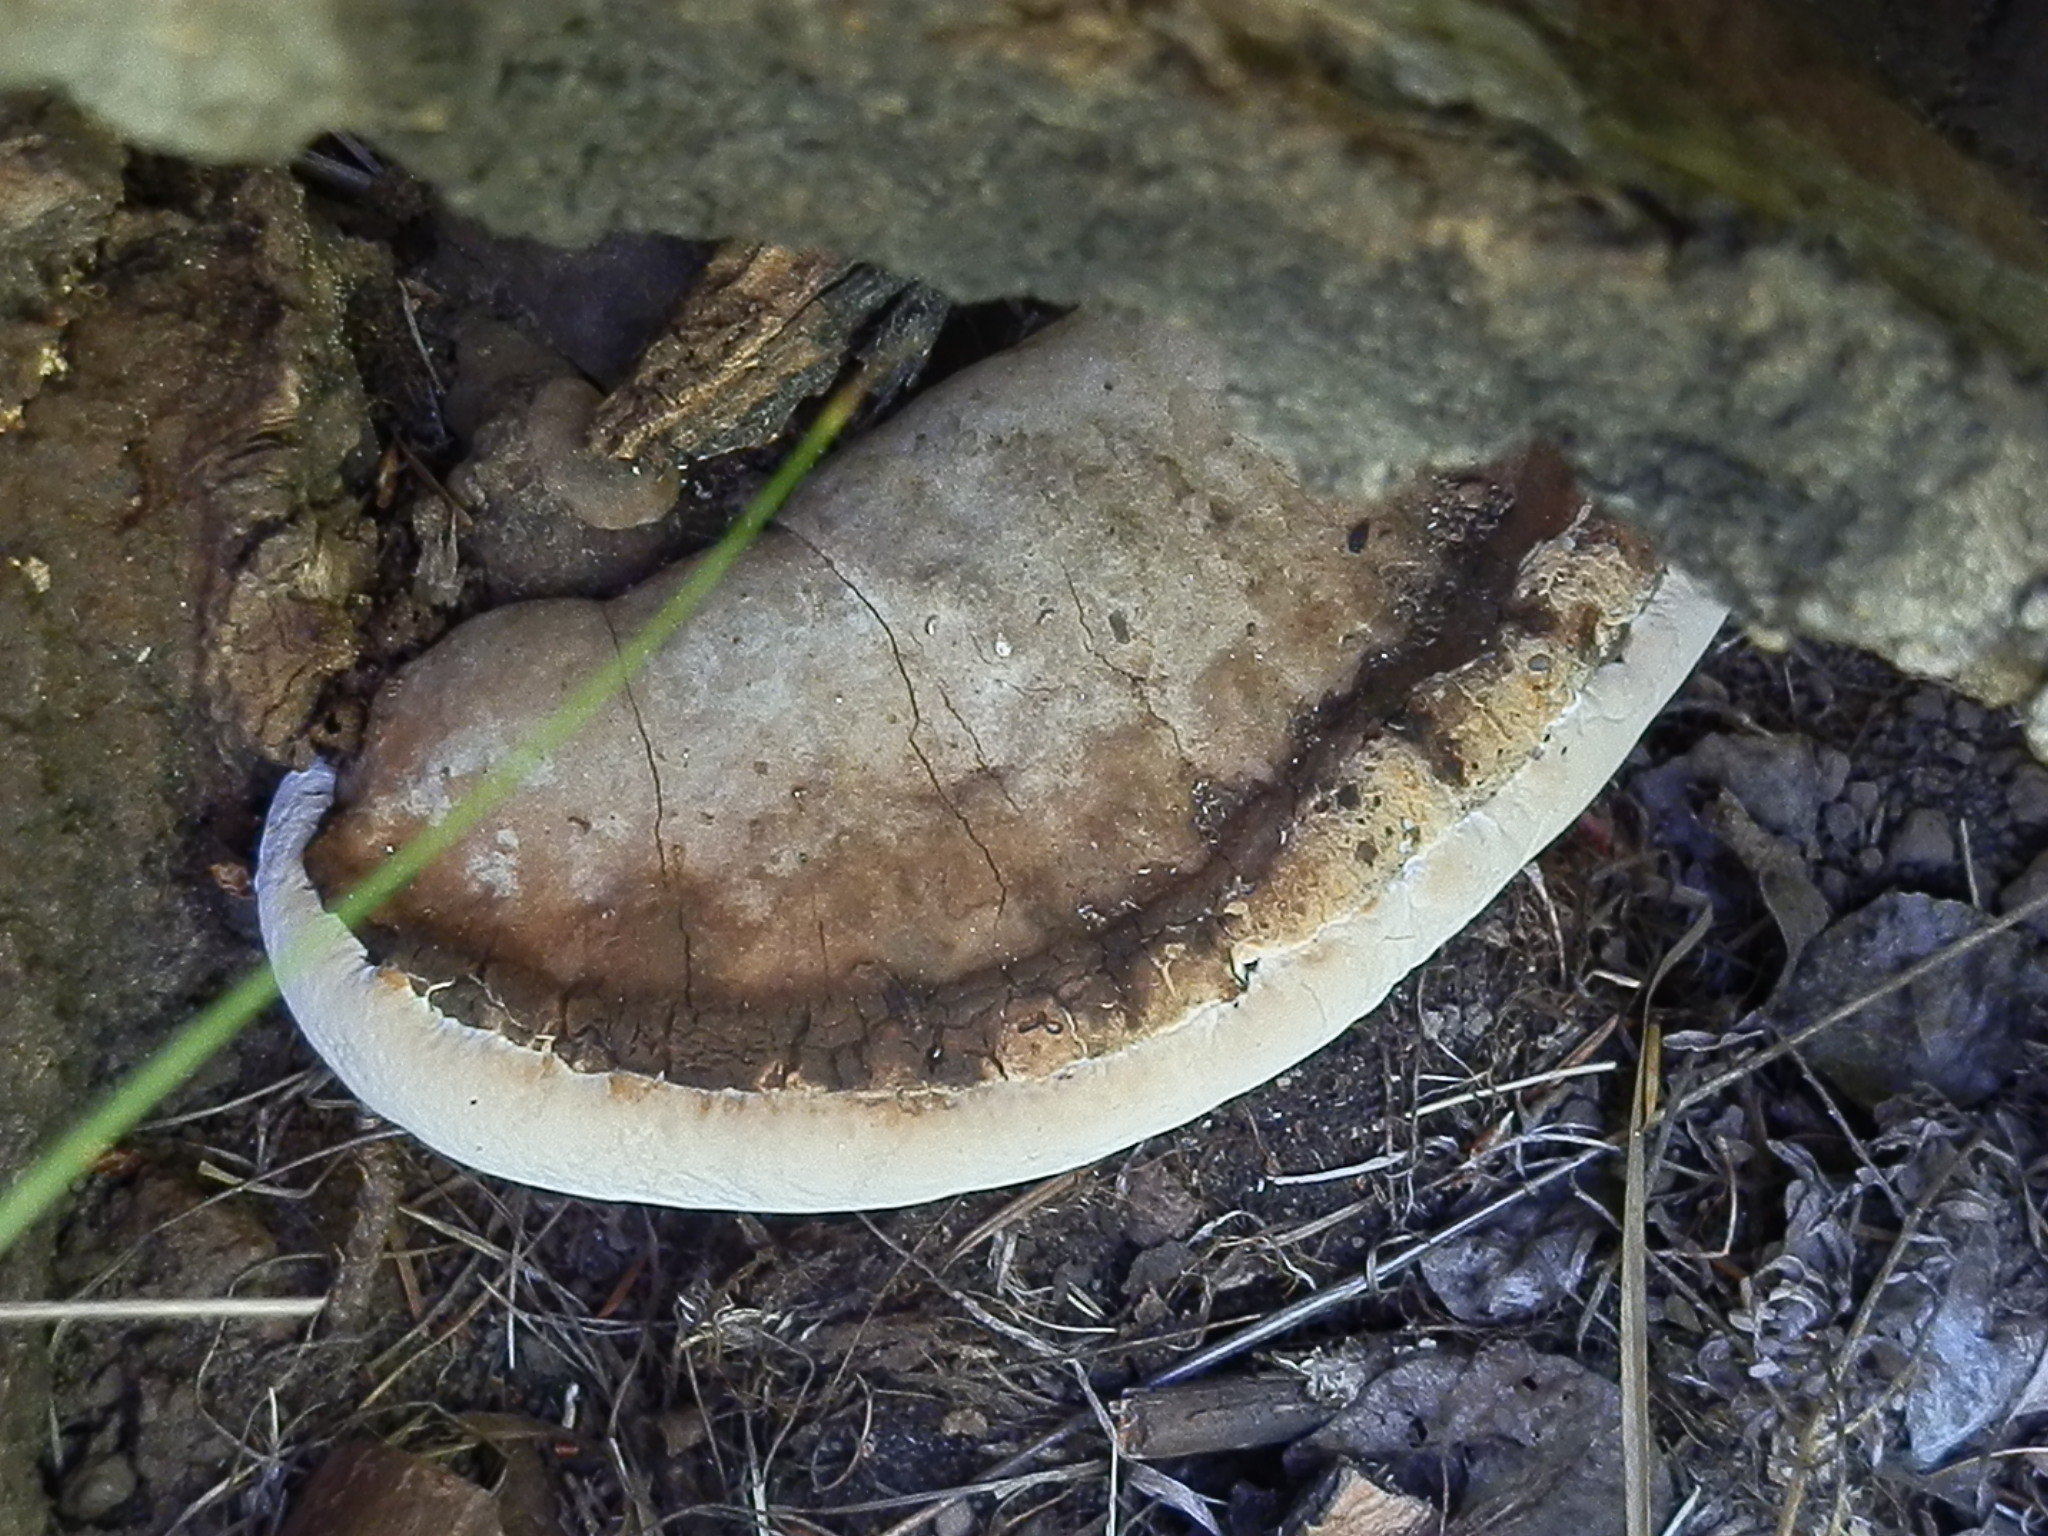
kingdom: Fungi
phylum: Basidiomycota
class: Agaricomycetes
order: Polyporales
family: Polyporaceae
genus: Ganoderma
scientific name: Ganoderma applanatum
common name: Artist's bracket
